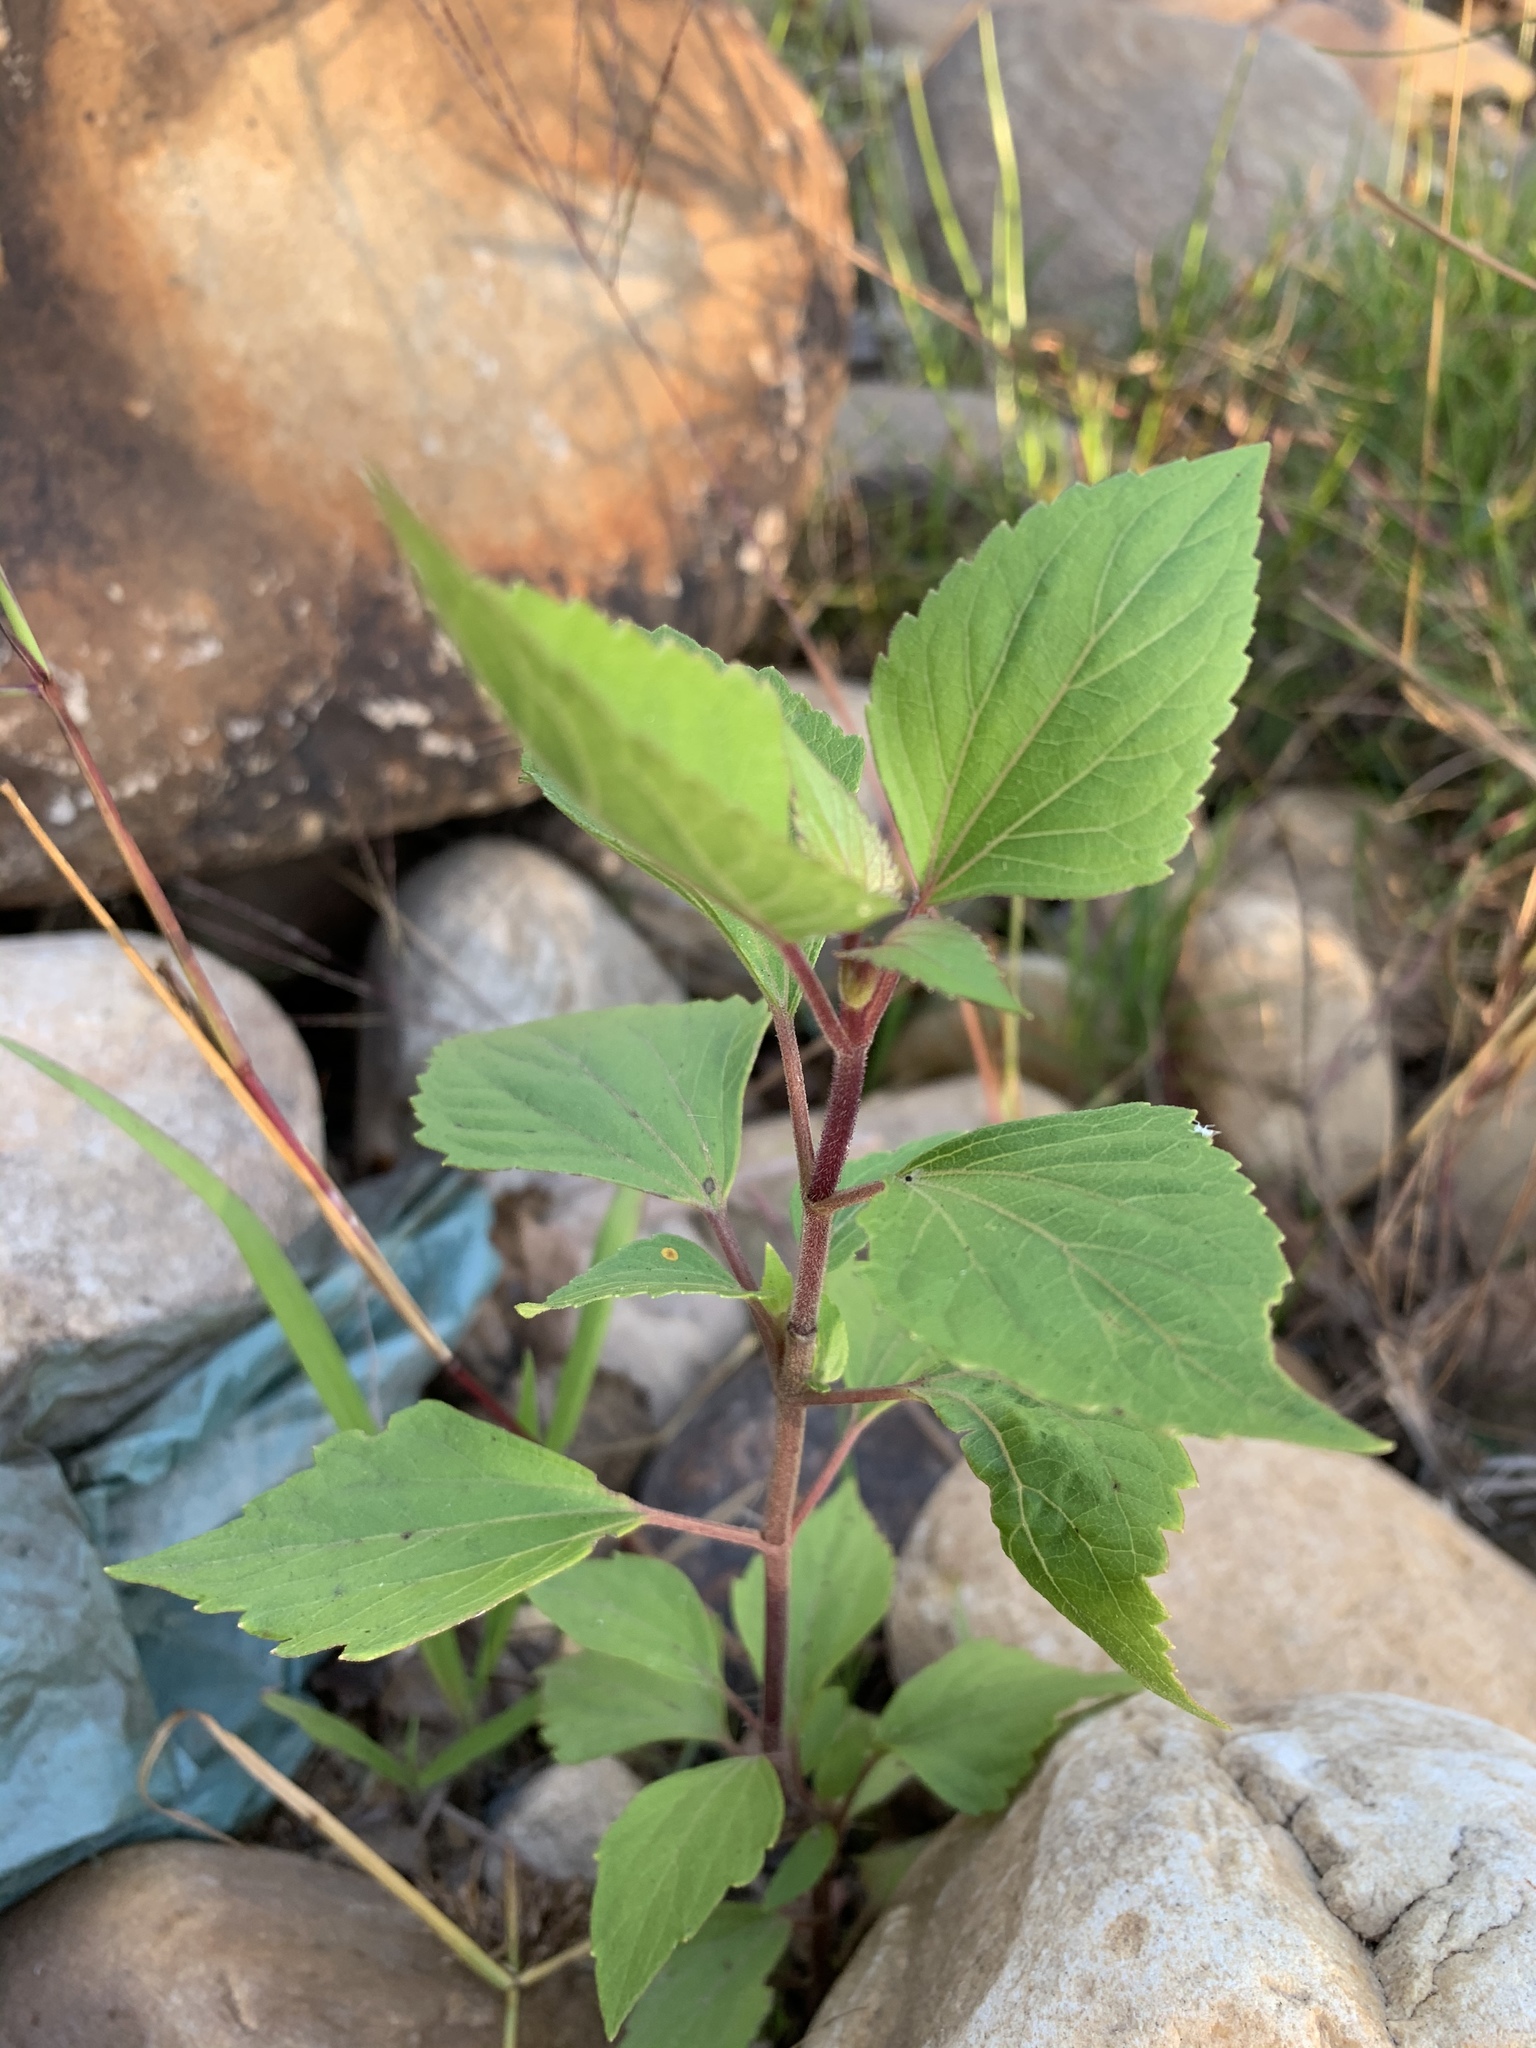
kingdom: Plantae
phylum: Tracheophyta
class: Magnoliopsida
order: Asterales
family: Asteraceae
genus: Ageratina
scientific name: Ageratina adenophora
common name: Sticky snakeroot
